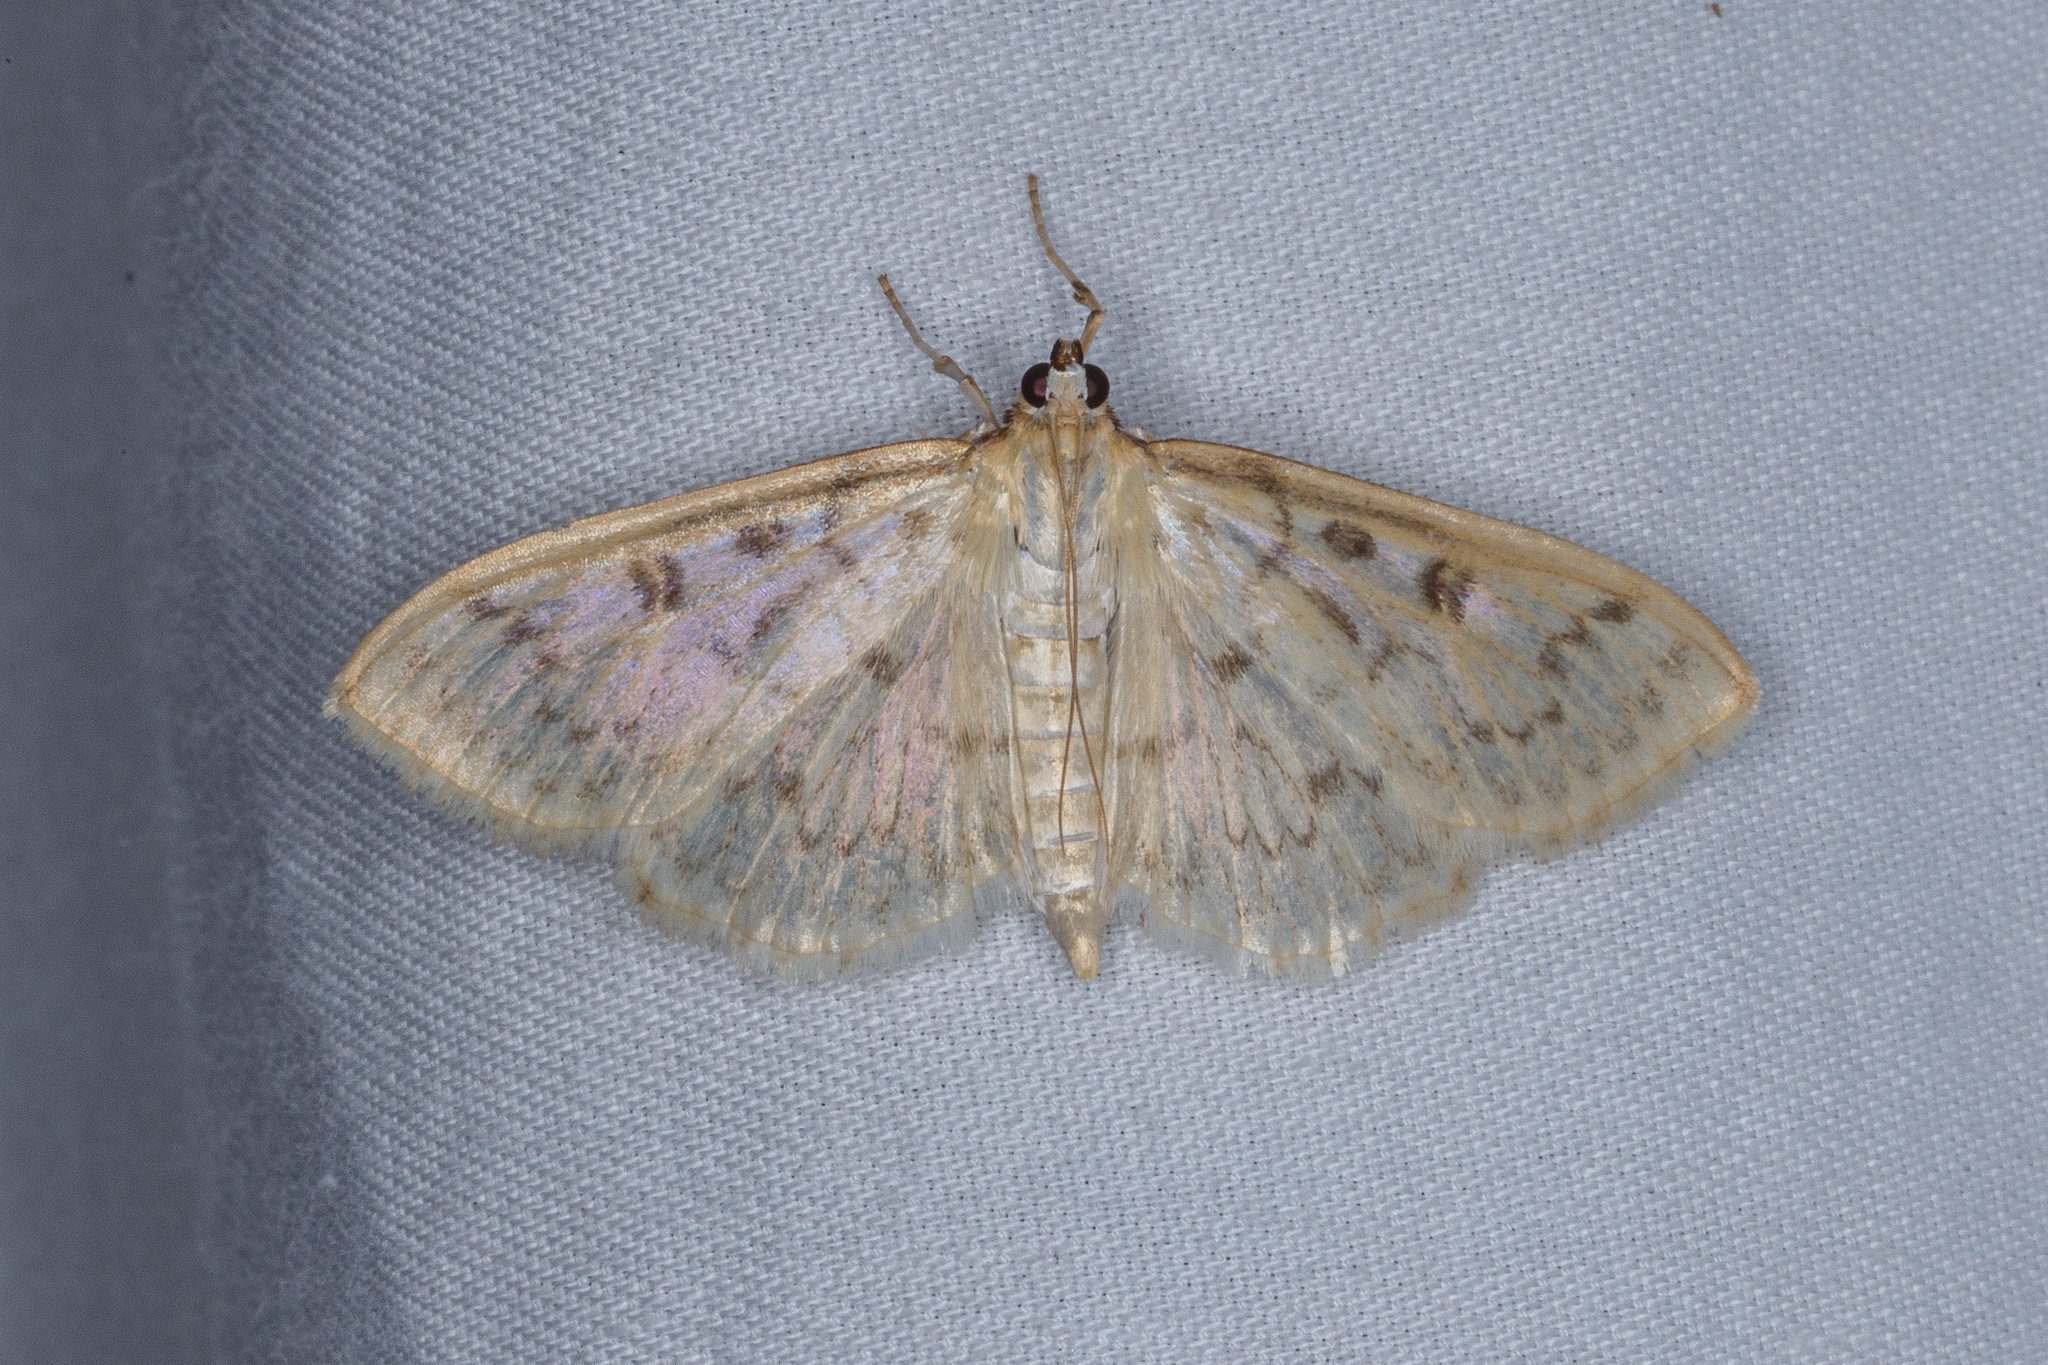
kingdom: Animalia
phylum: Arthropoda
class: Insecta
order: Lepidoptera
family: Crambidae
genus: Herpetogramma
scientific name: Herpetogramma aquilonalis
